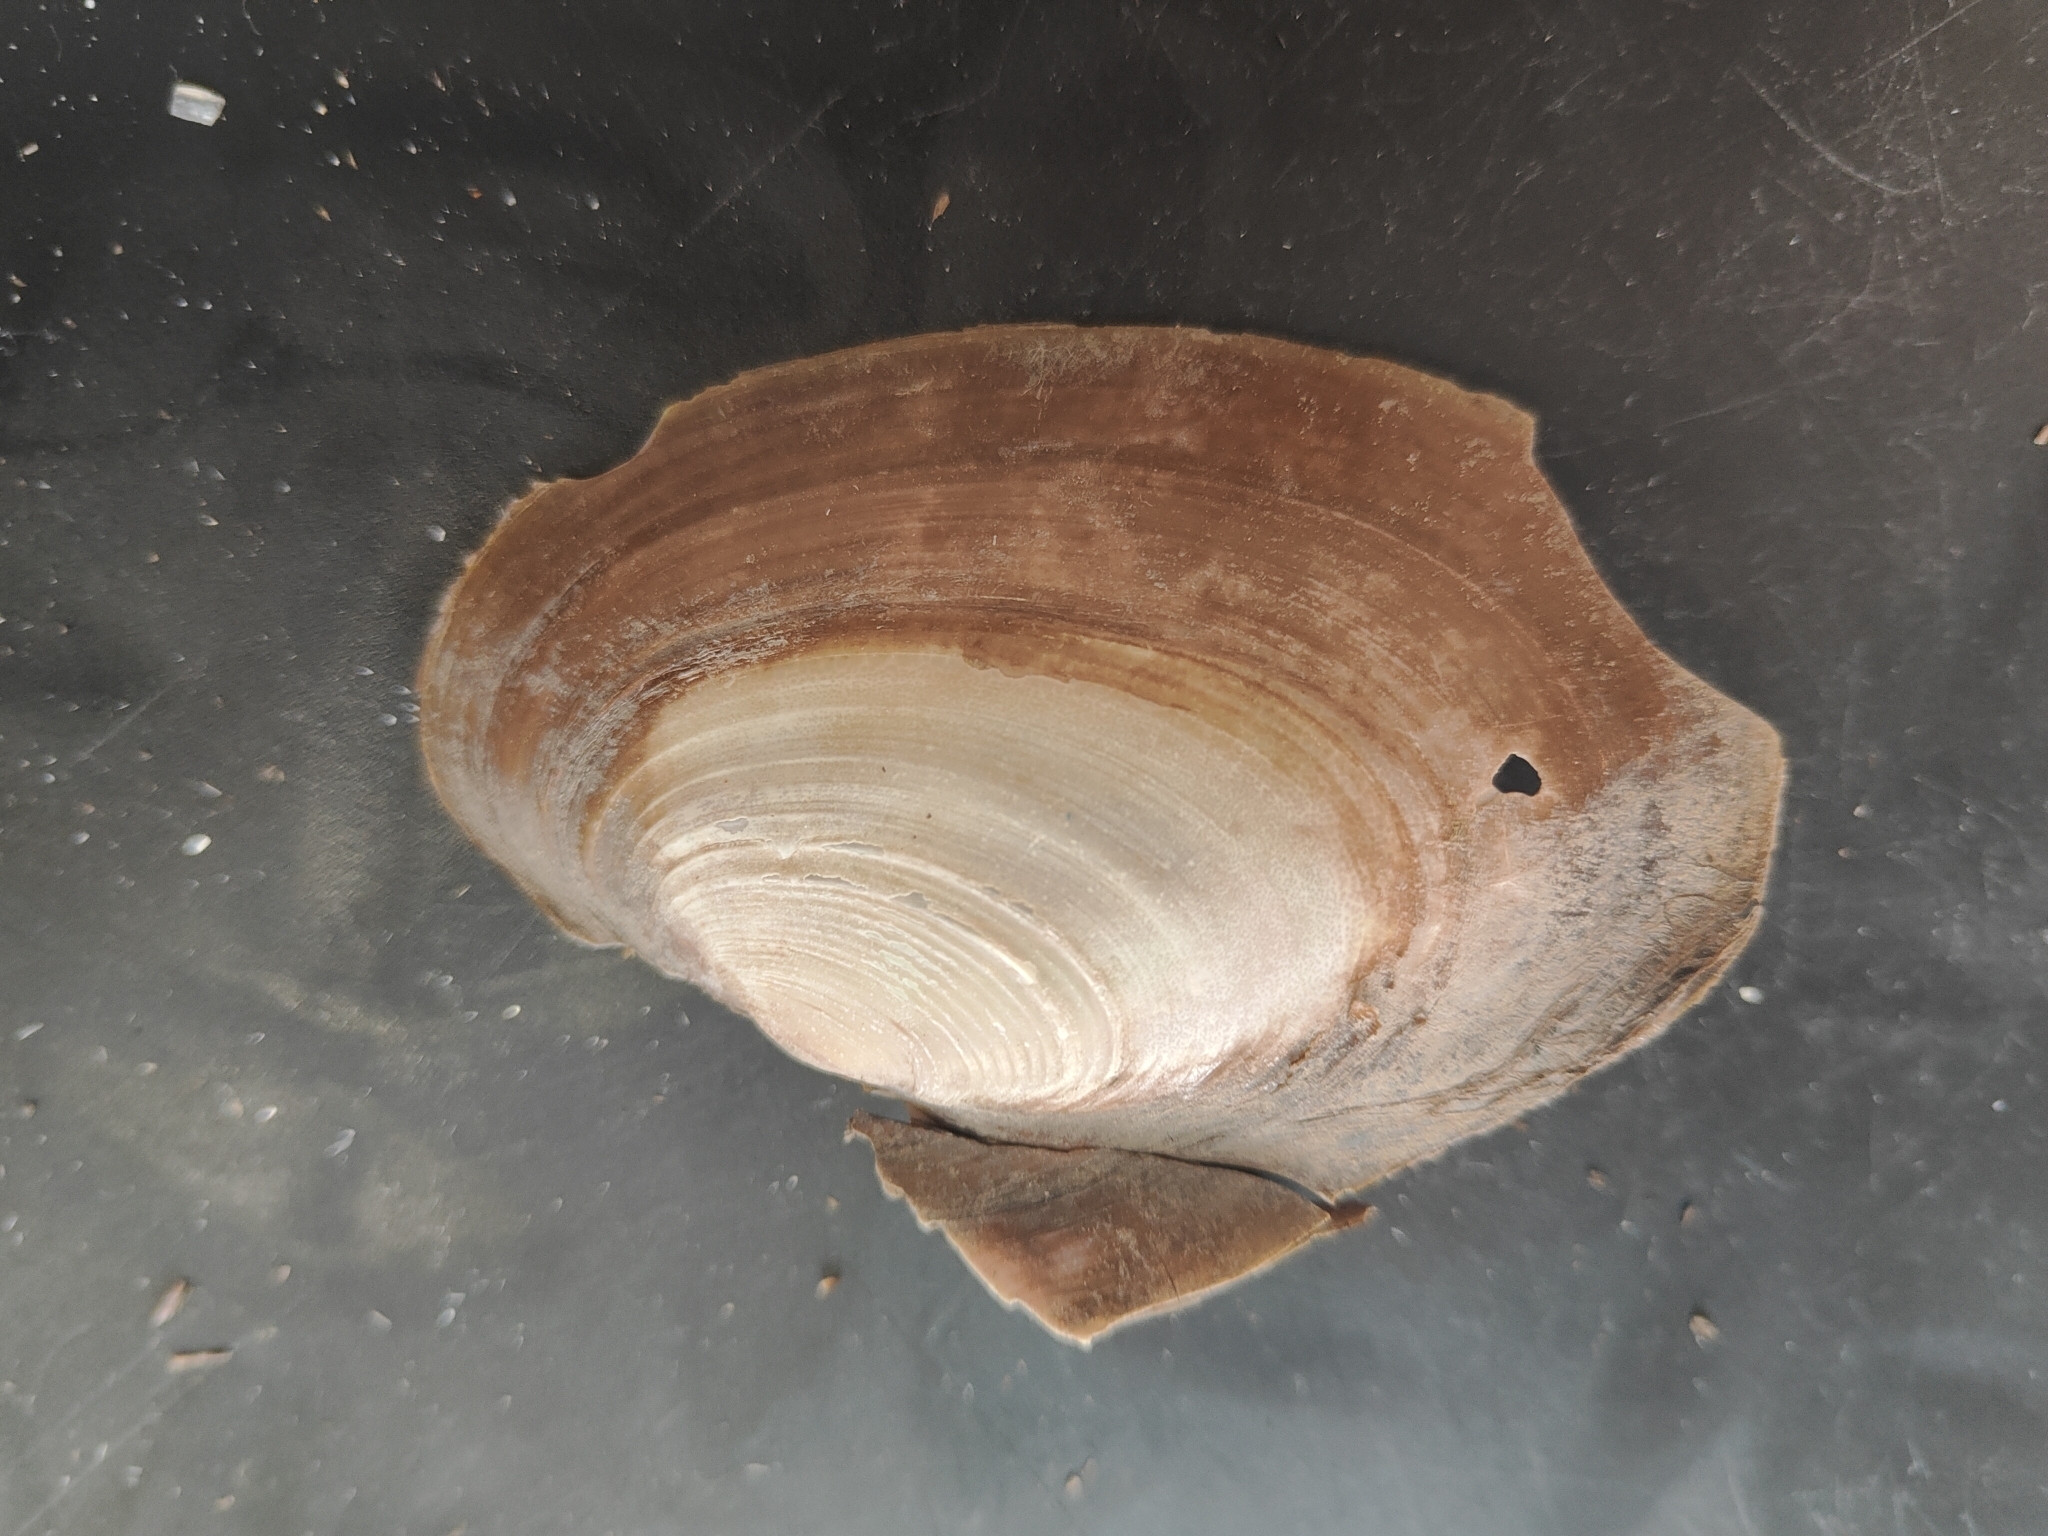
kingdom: Animalia
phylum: Mollusca
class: Bivalvia
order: Unionida
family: Unionidae
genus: Potamilus
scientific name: Potamilus ohiensis
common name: Pink papershell
